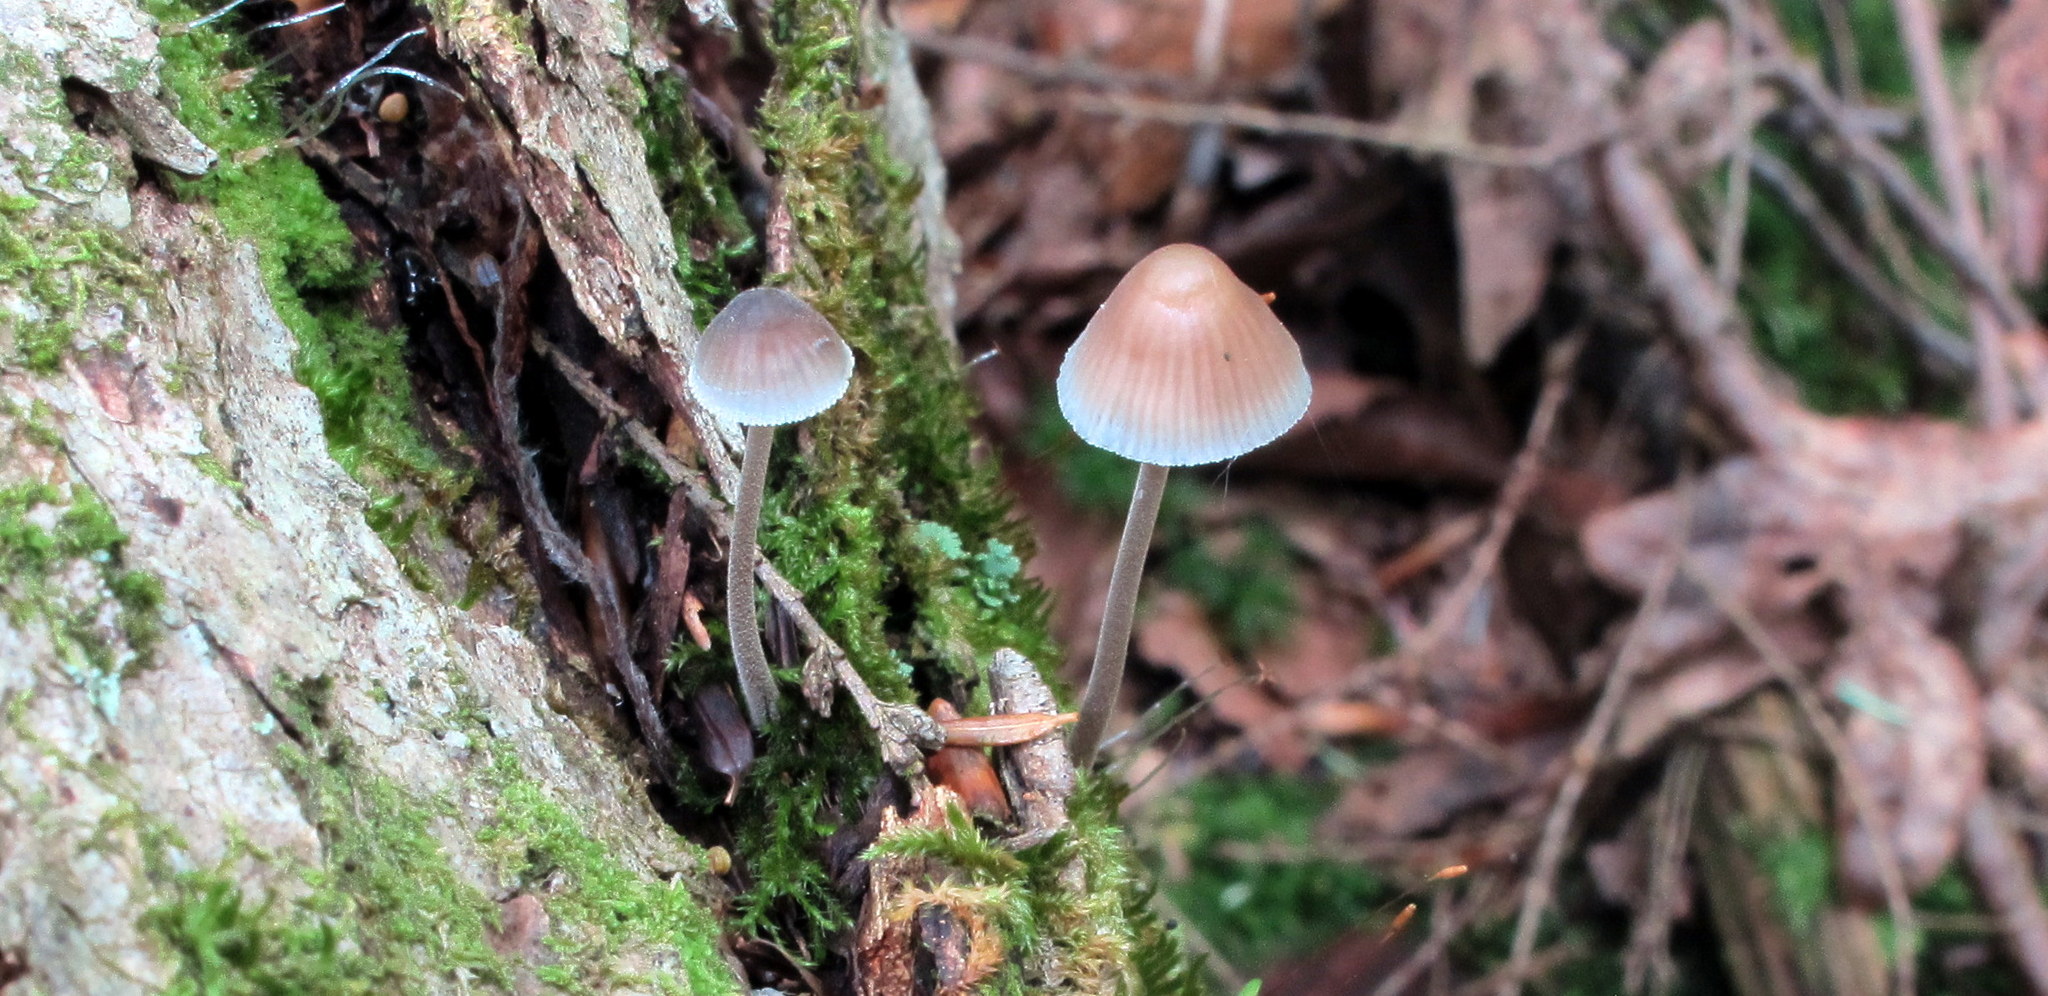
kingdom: Fungi
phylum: Basidiomycota
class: Agaricomycetes
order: Agaricales
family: Mycenaceae
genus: Mycena
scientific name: Mycena subcaerulea
